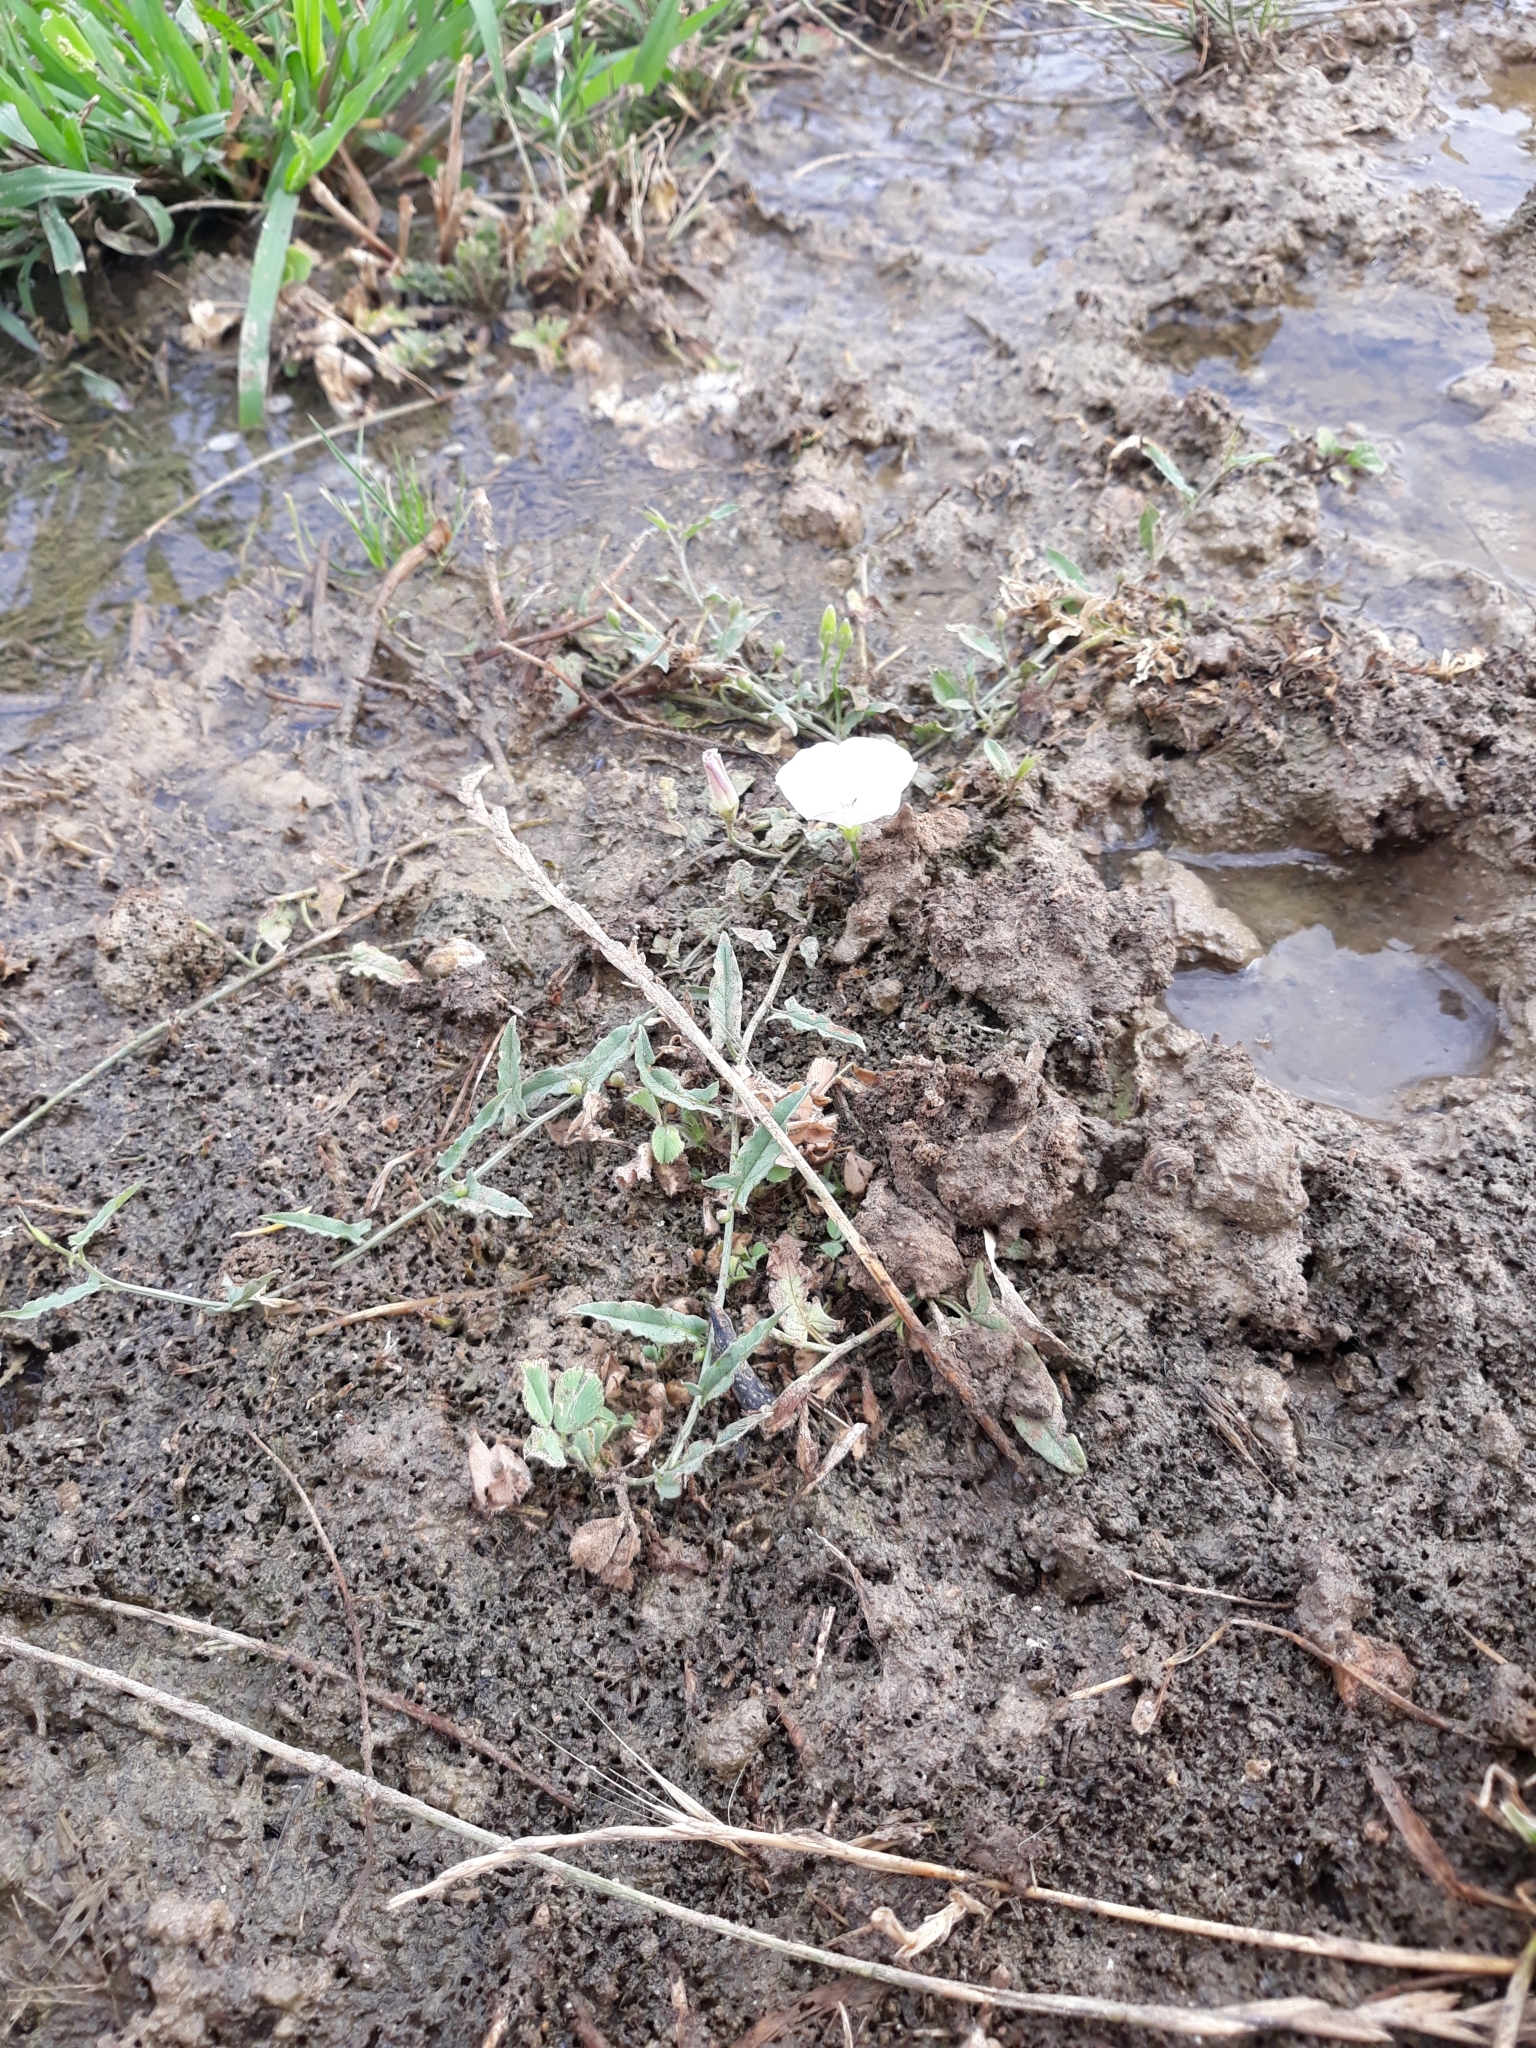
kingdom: Plantae
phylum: Tracheophyta
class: Magnoliopsida
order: Solanales
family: Convolvulaceae
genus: Convolvulus
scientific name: Convolvulus arvensis
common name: Field bindweed
